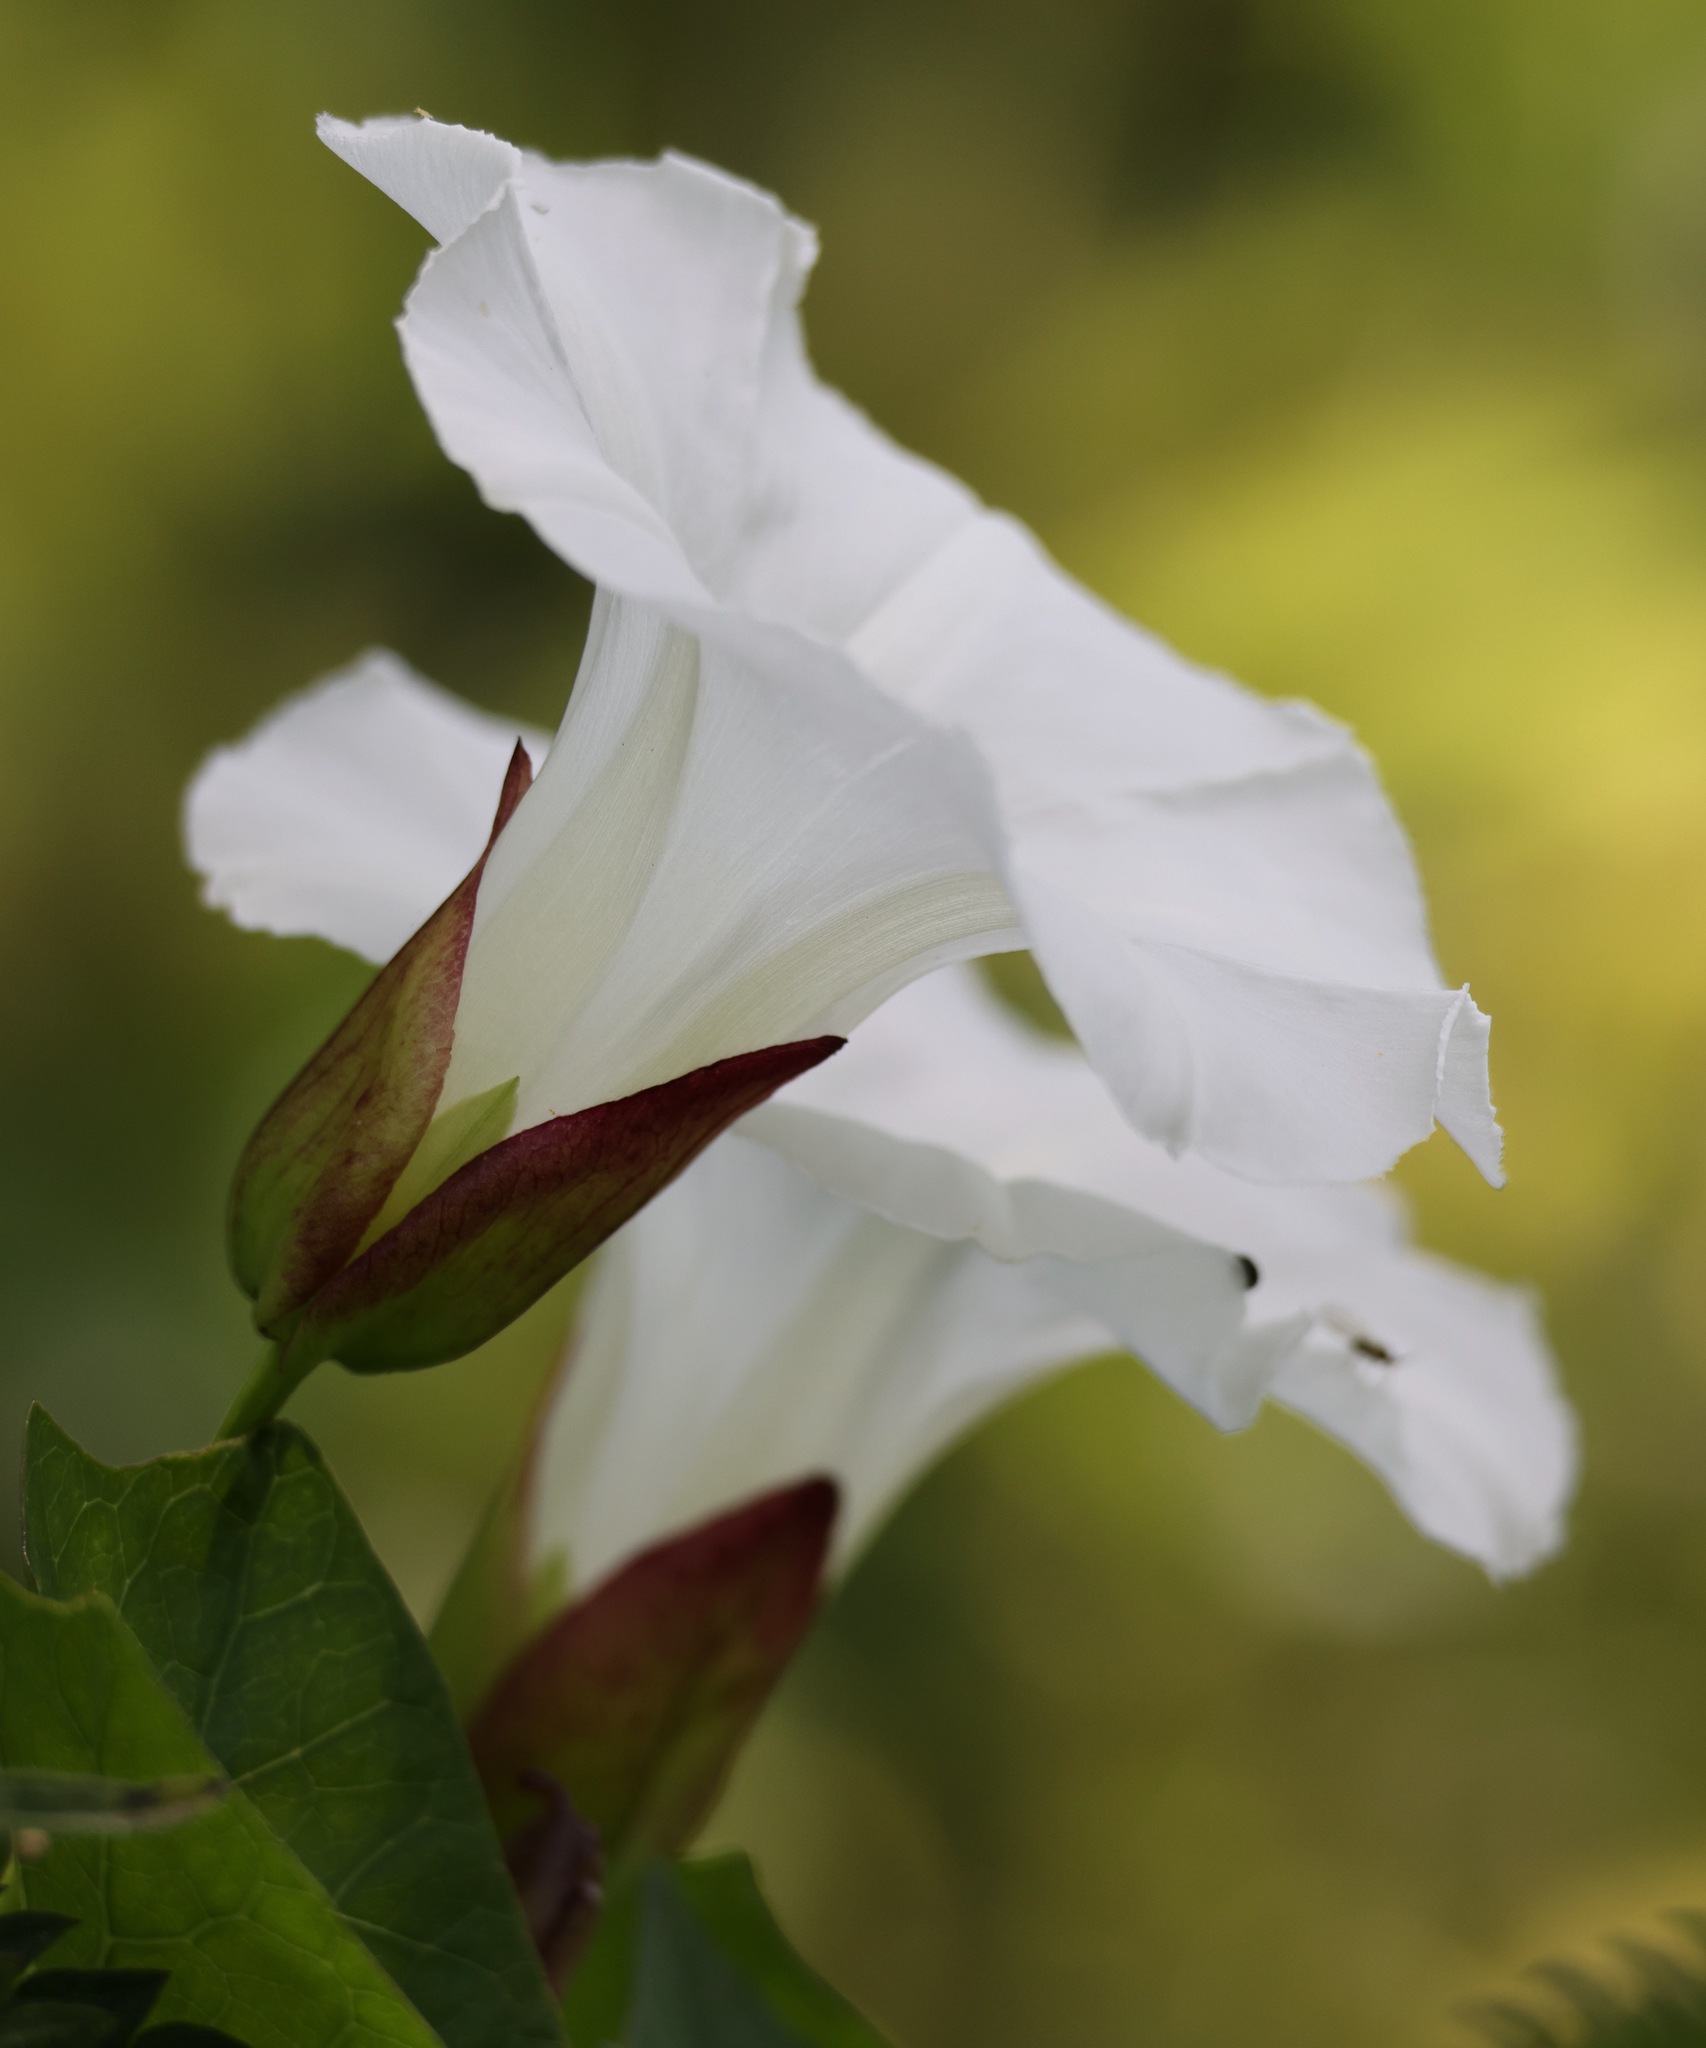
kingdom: Plantae
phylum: Tracheophyta
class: Magnoliopsida
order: Solanales
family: Convolvulaceae
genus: Calystegia
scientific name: Calystegia sepium
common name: Hedge bindweed
